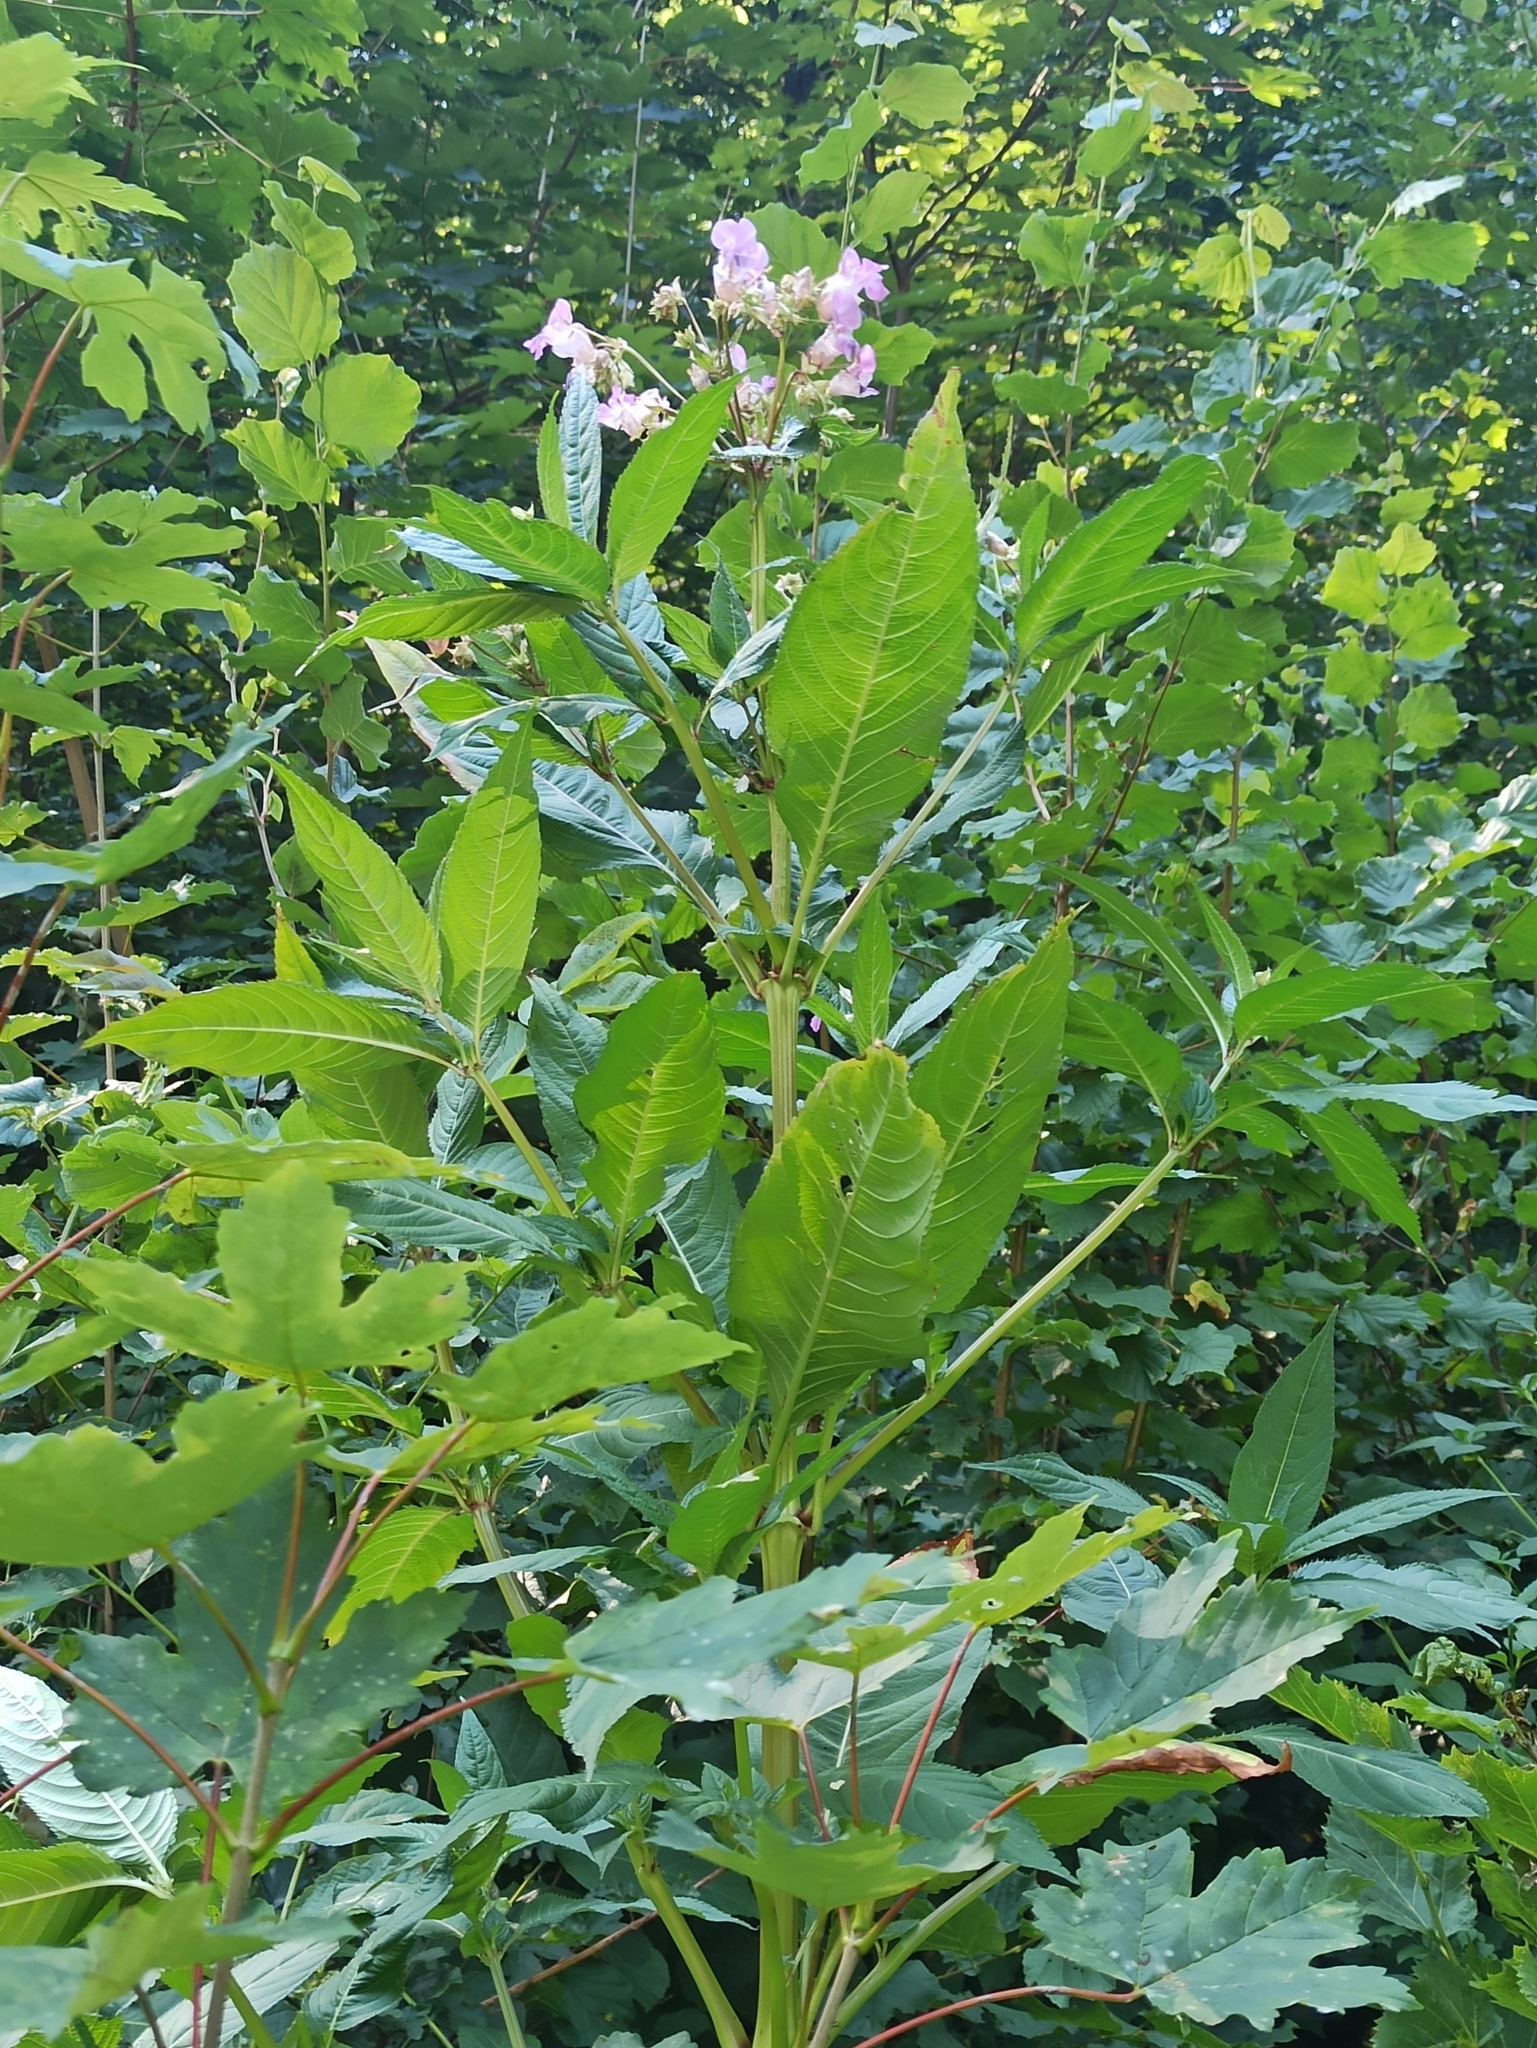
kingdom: Plantae
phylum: Tracheophyta
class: Magnoliopsida
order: Ericales
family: Balsaminaceae
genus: Impatiens
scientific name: Impatiens glandulifera
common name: Himalayan balsam
